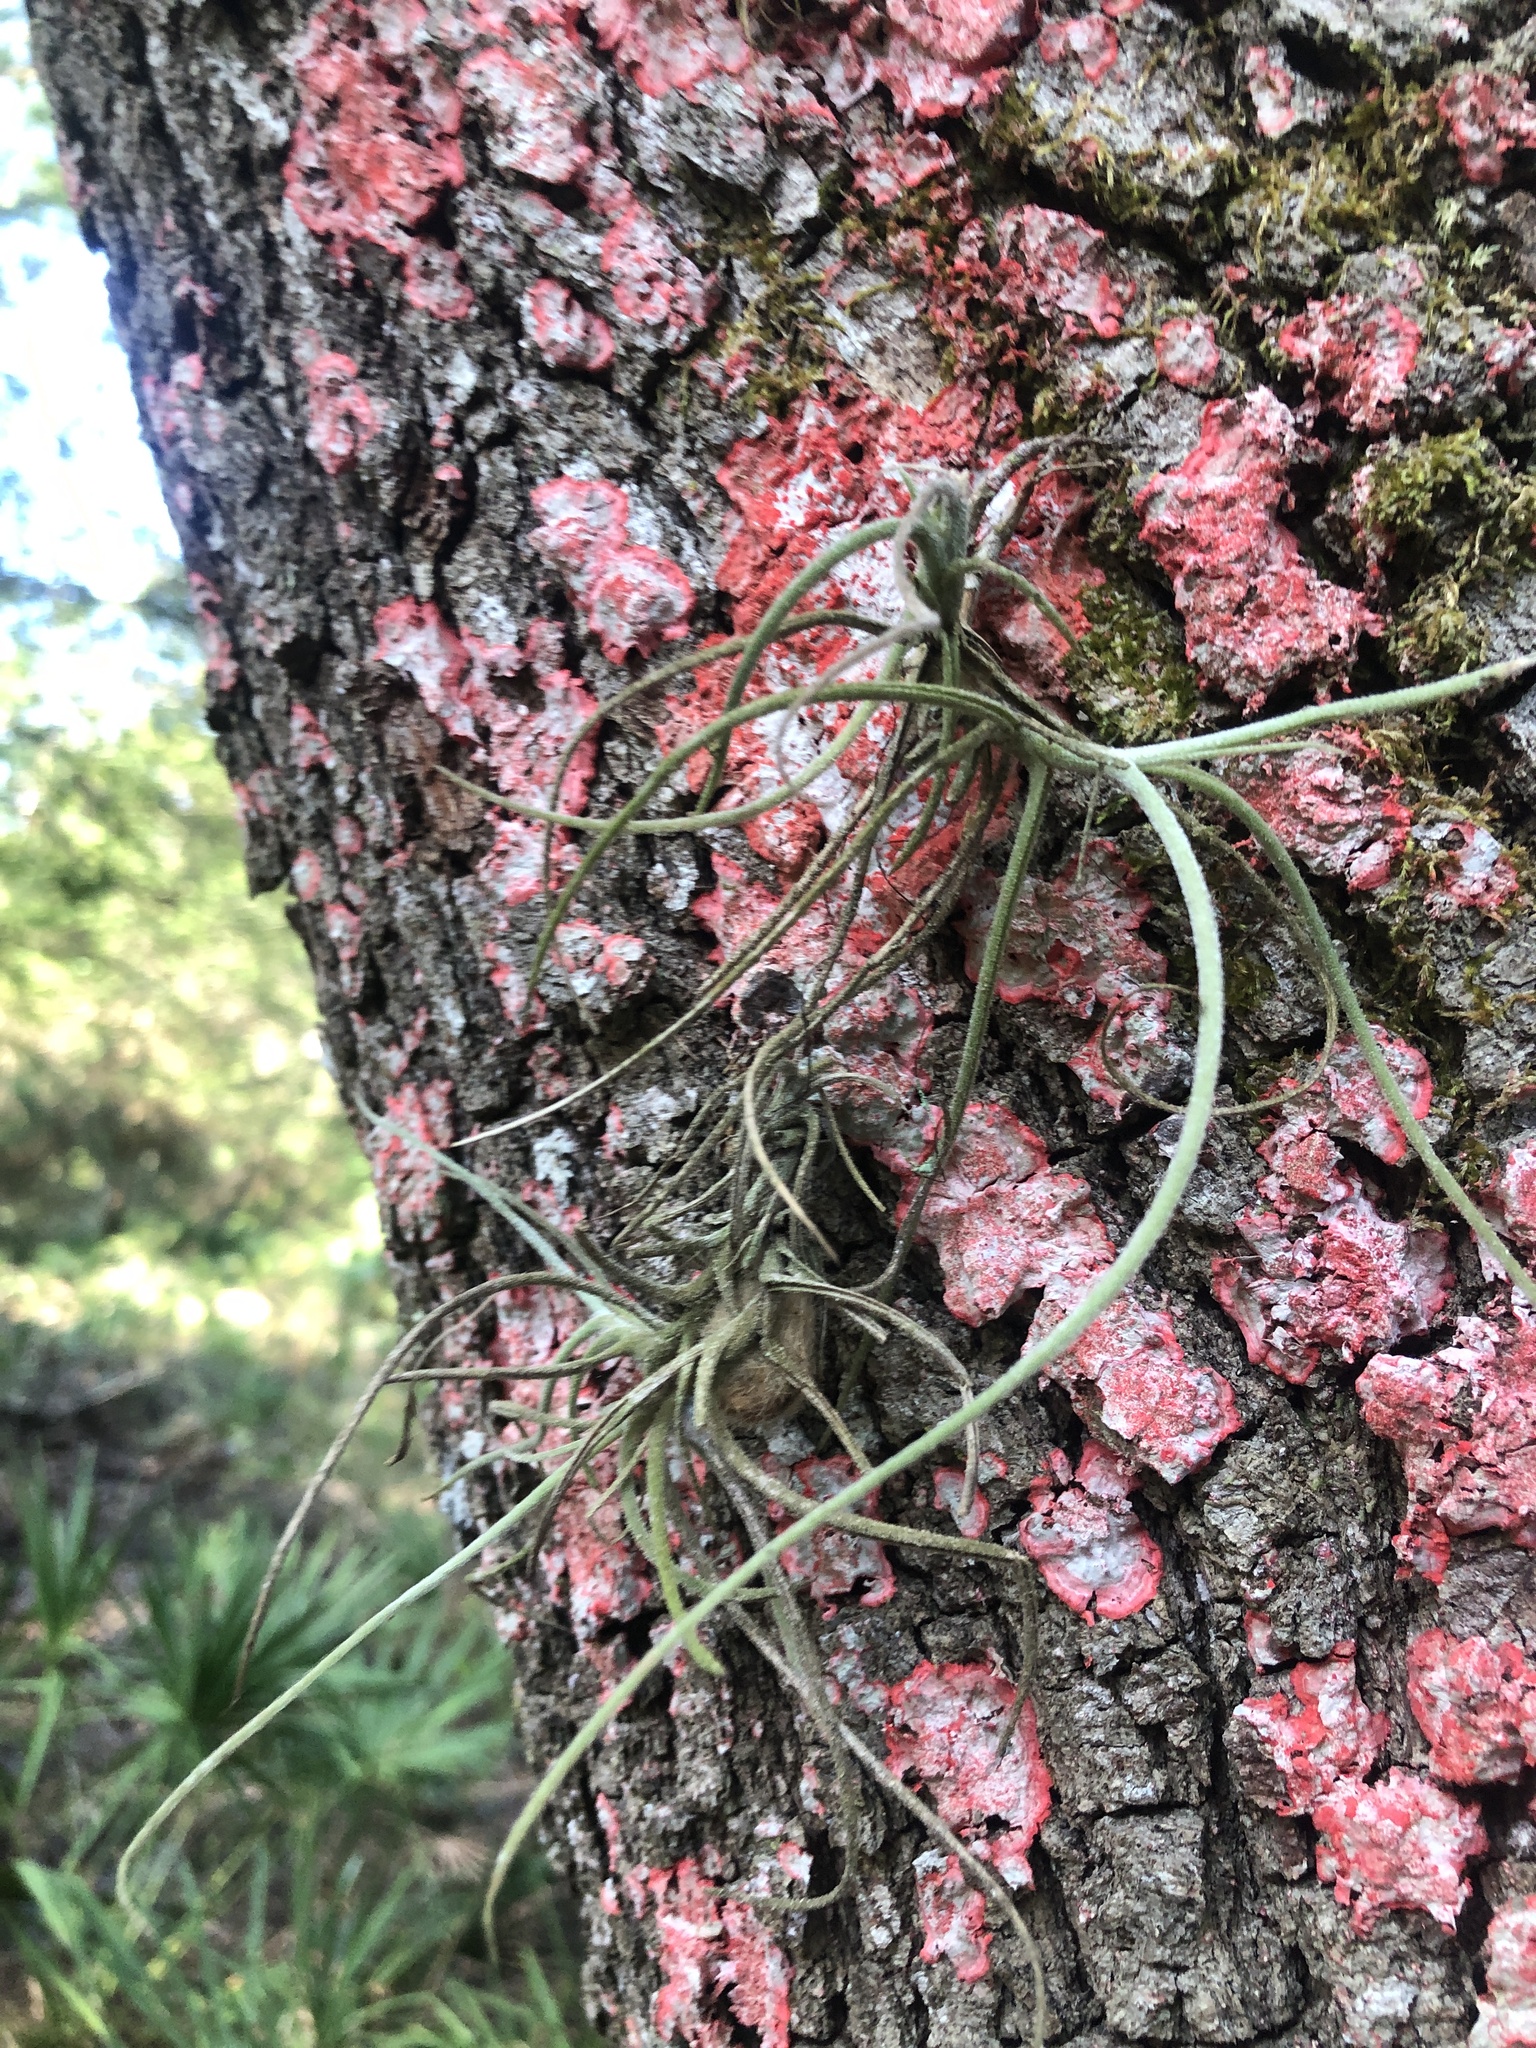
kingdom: Plantae
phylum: Tracheophyta
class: Liliopsida
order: Poales
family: Bromeliaceae
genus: Tillandsia
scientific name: Tillandsia recurvata
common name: Small ballmoss
